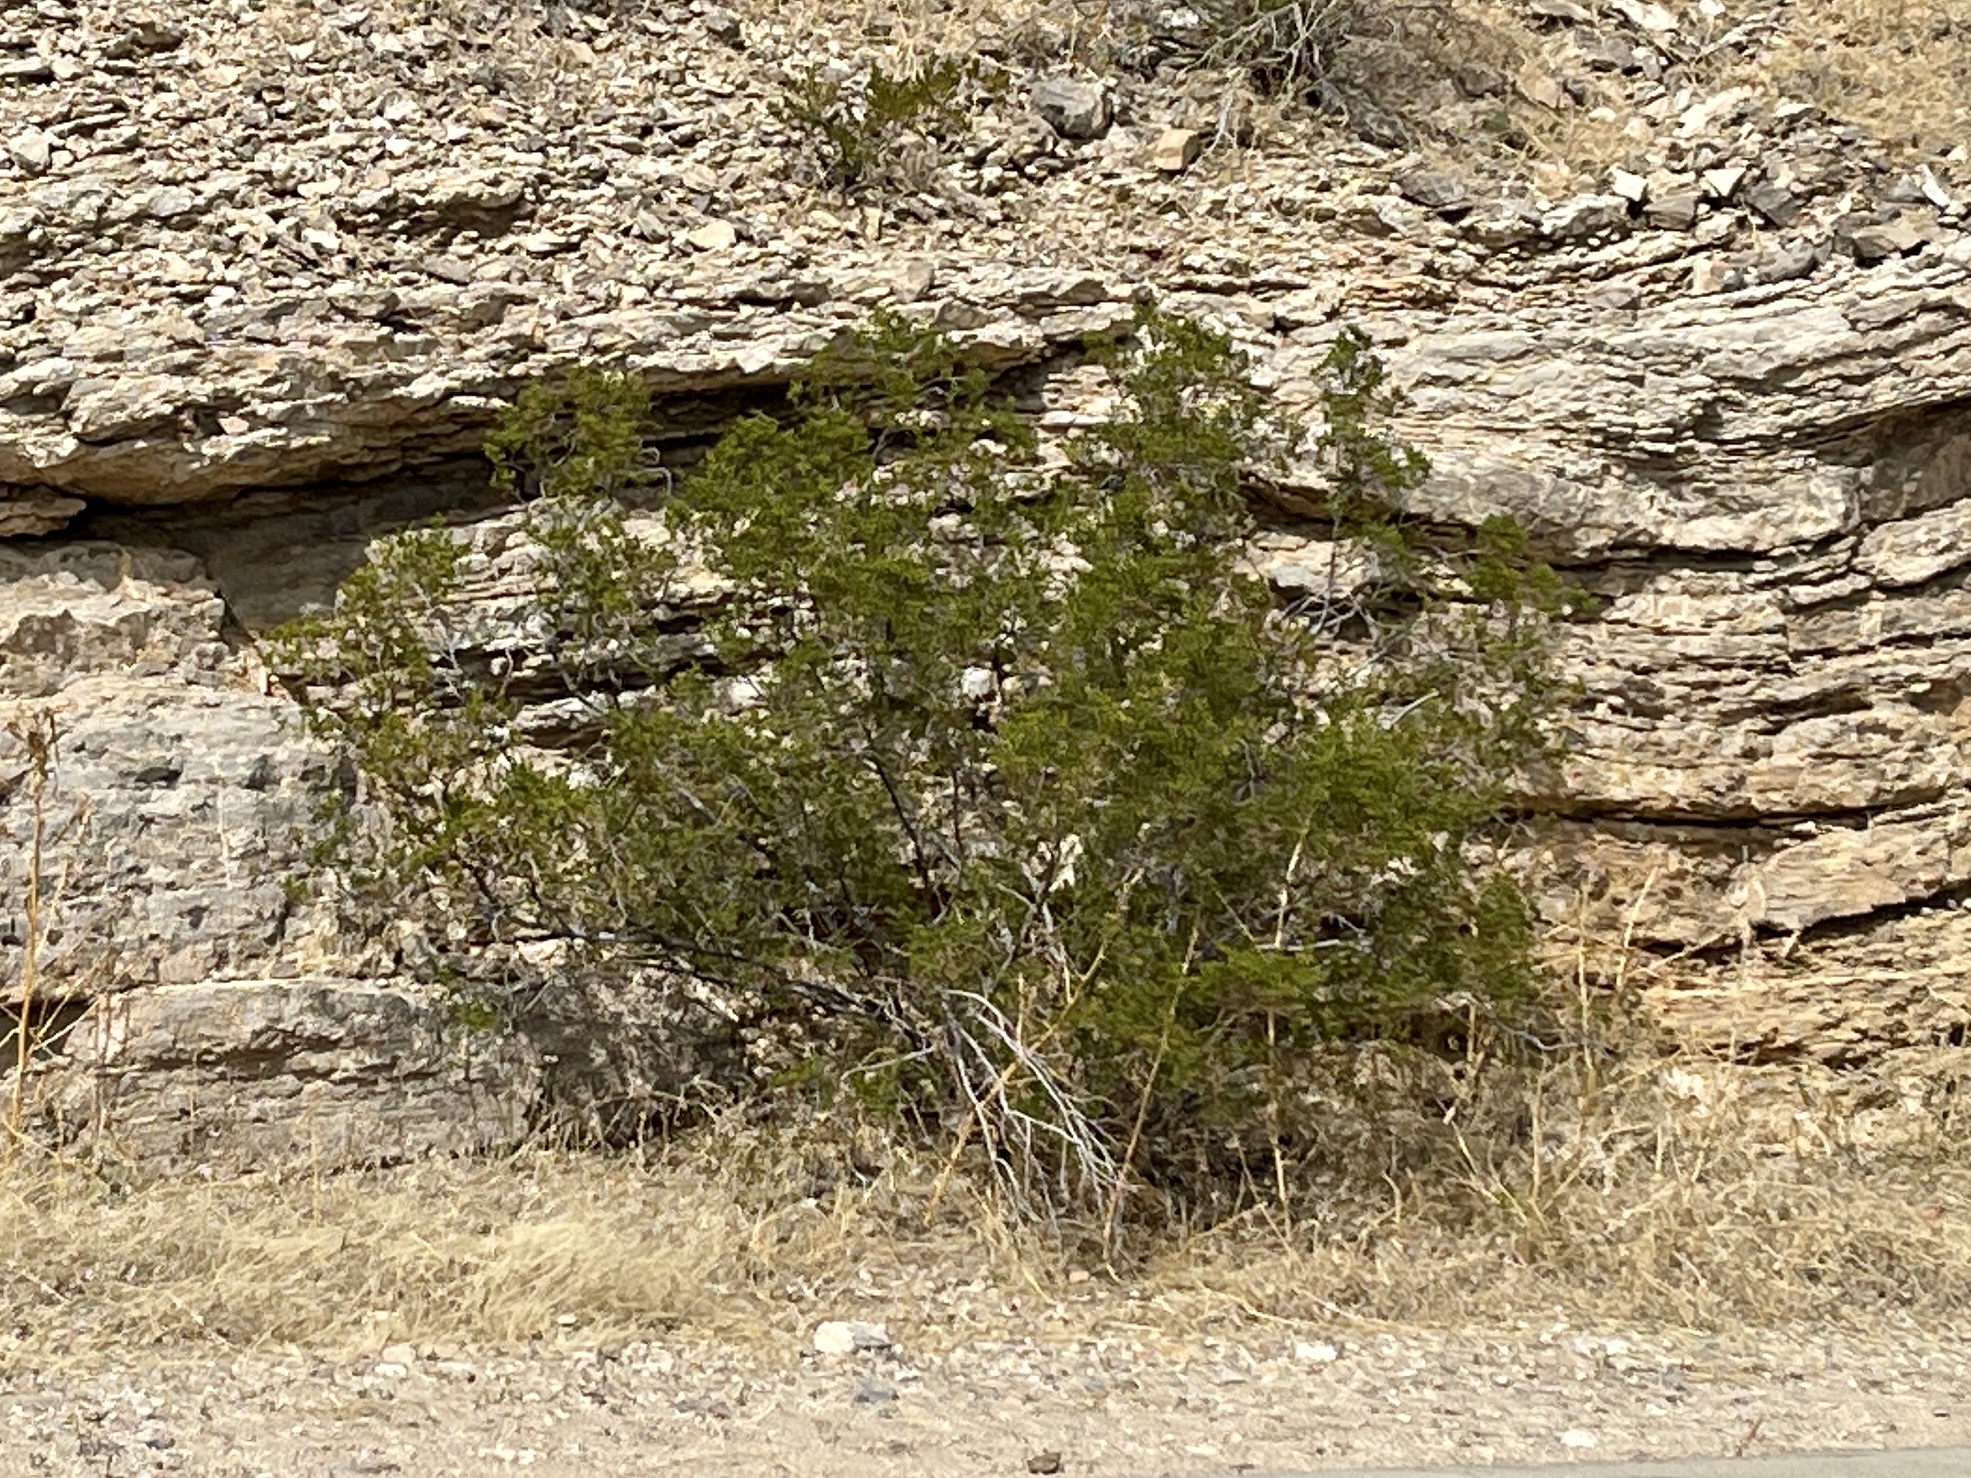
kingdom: Plantae
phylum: Tracheophyta
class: Magnoliopsida
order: Zygophyllales
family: Zygophyllaceae
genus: Larrea
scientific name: Larrea tridentata
